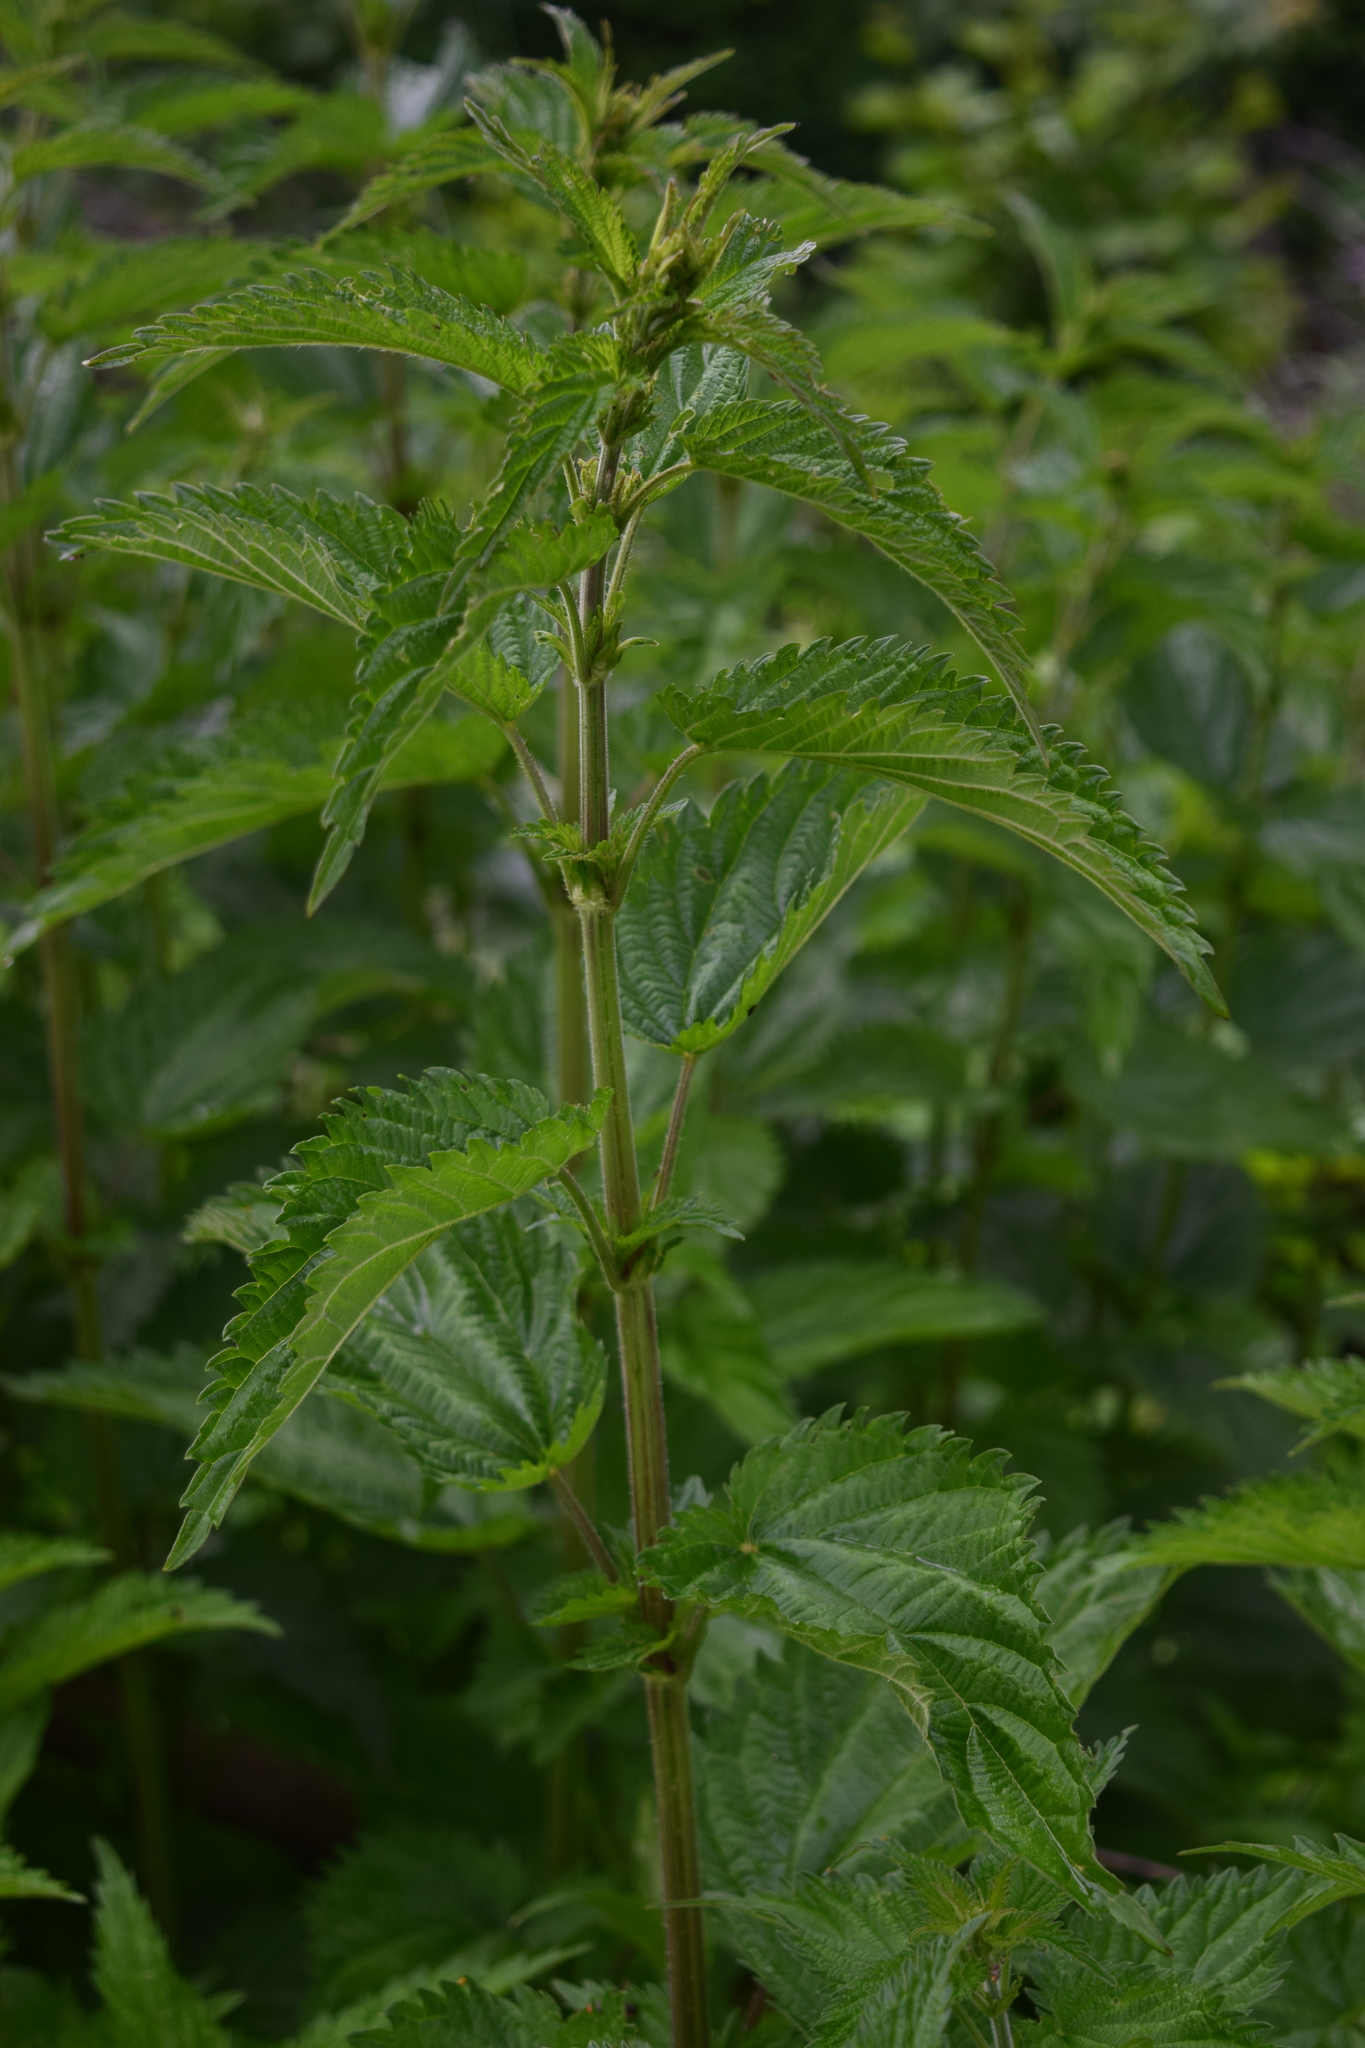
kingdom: Plantae
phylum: Tracheophyta
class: Magnoliopsida
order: Rosales
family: Urticaceae
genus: Urtica
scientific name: Urtica dioica
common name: Common nettle
